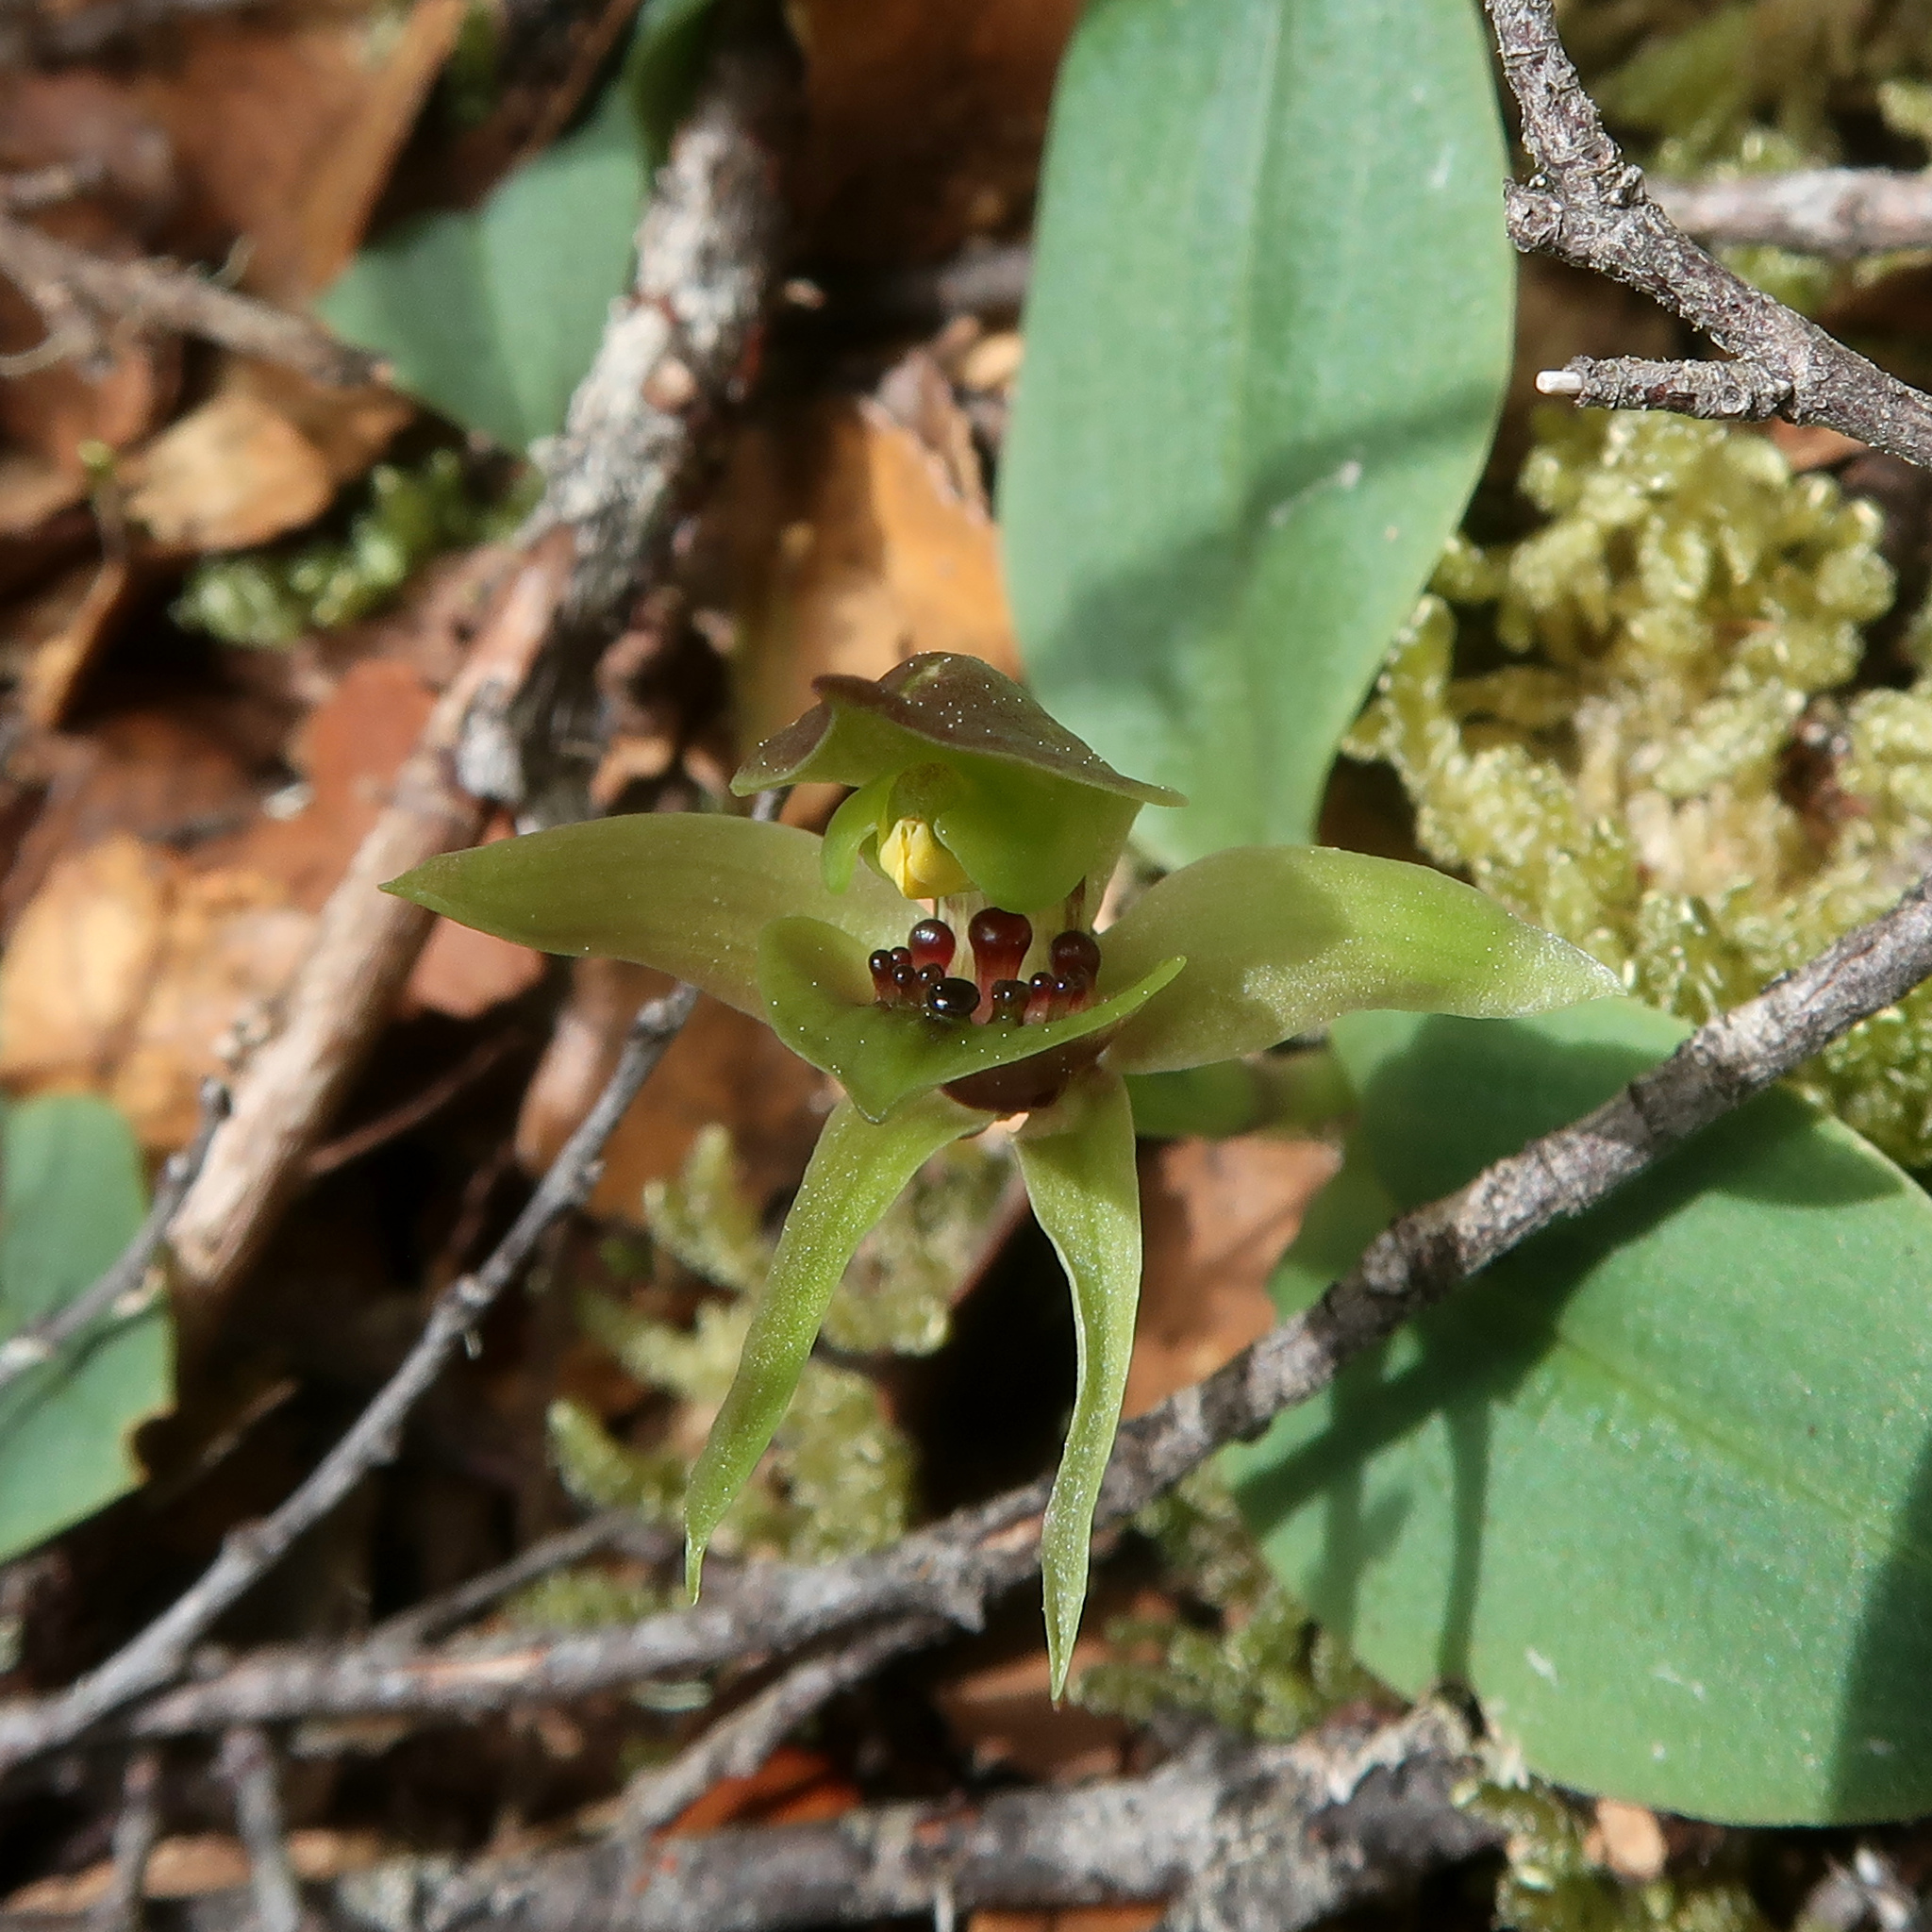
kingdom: Plantae
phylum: Tracheophyta
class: Liliopsida
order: Asparagales
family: Orchidaceae
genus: Chiloglottis
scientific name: Chiloglottis cornuta
